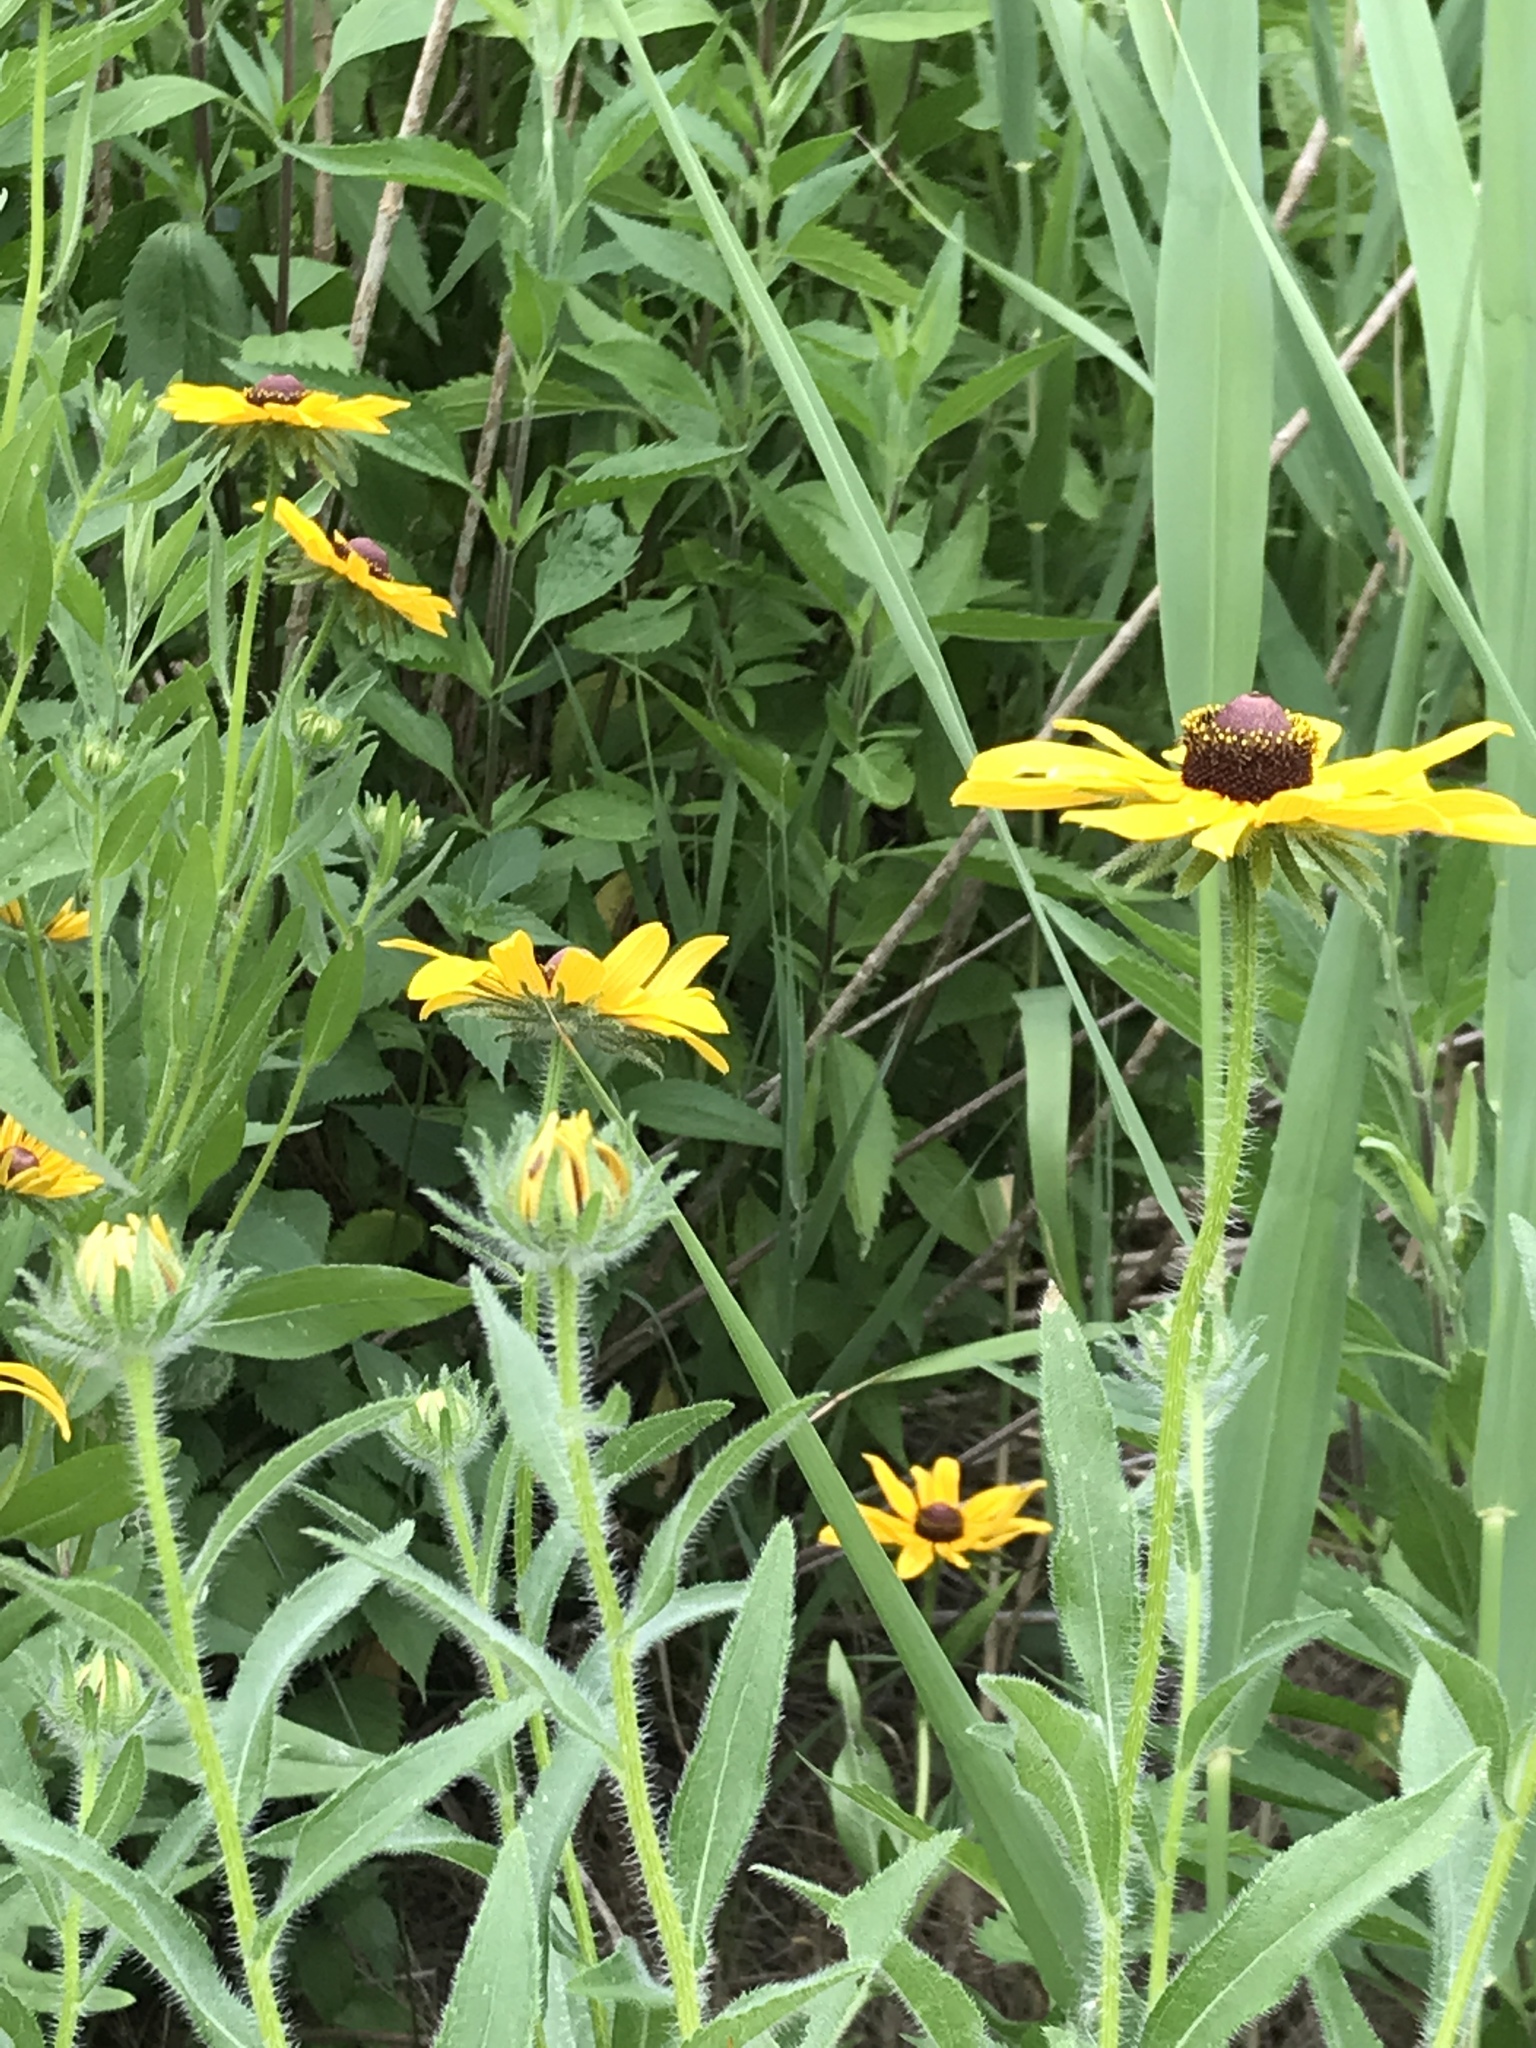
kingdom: Plantae
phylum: Tracheophyta
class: Magnoliopsida
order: Asterales
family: Asteraceae
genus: Rudbeckia
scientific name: Rudbeckia hirta
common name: Black-eyed-susan
